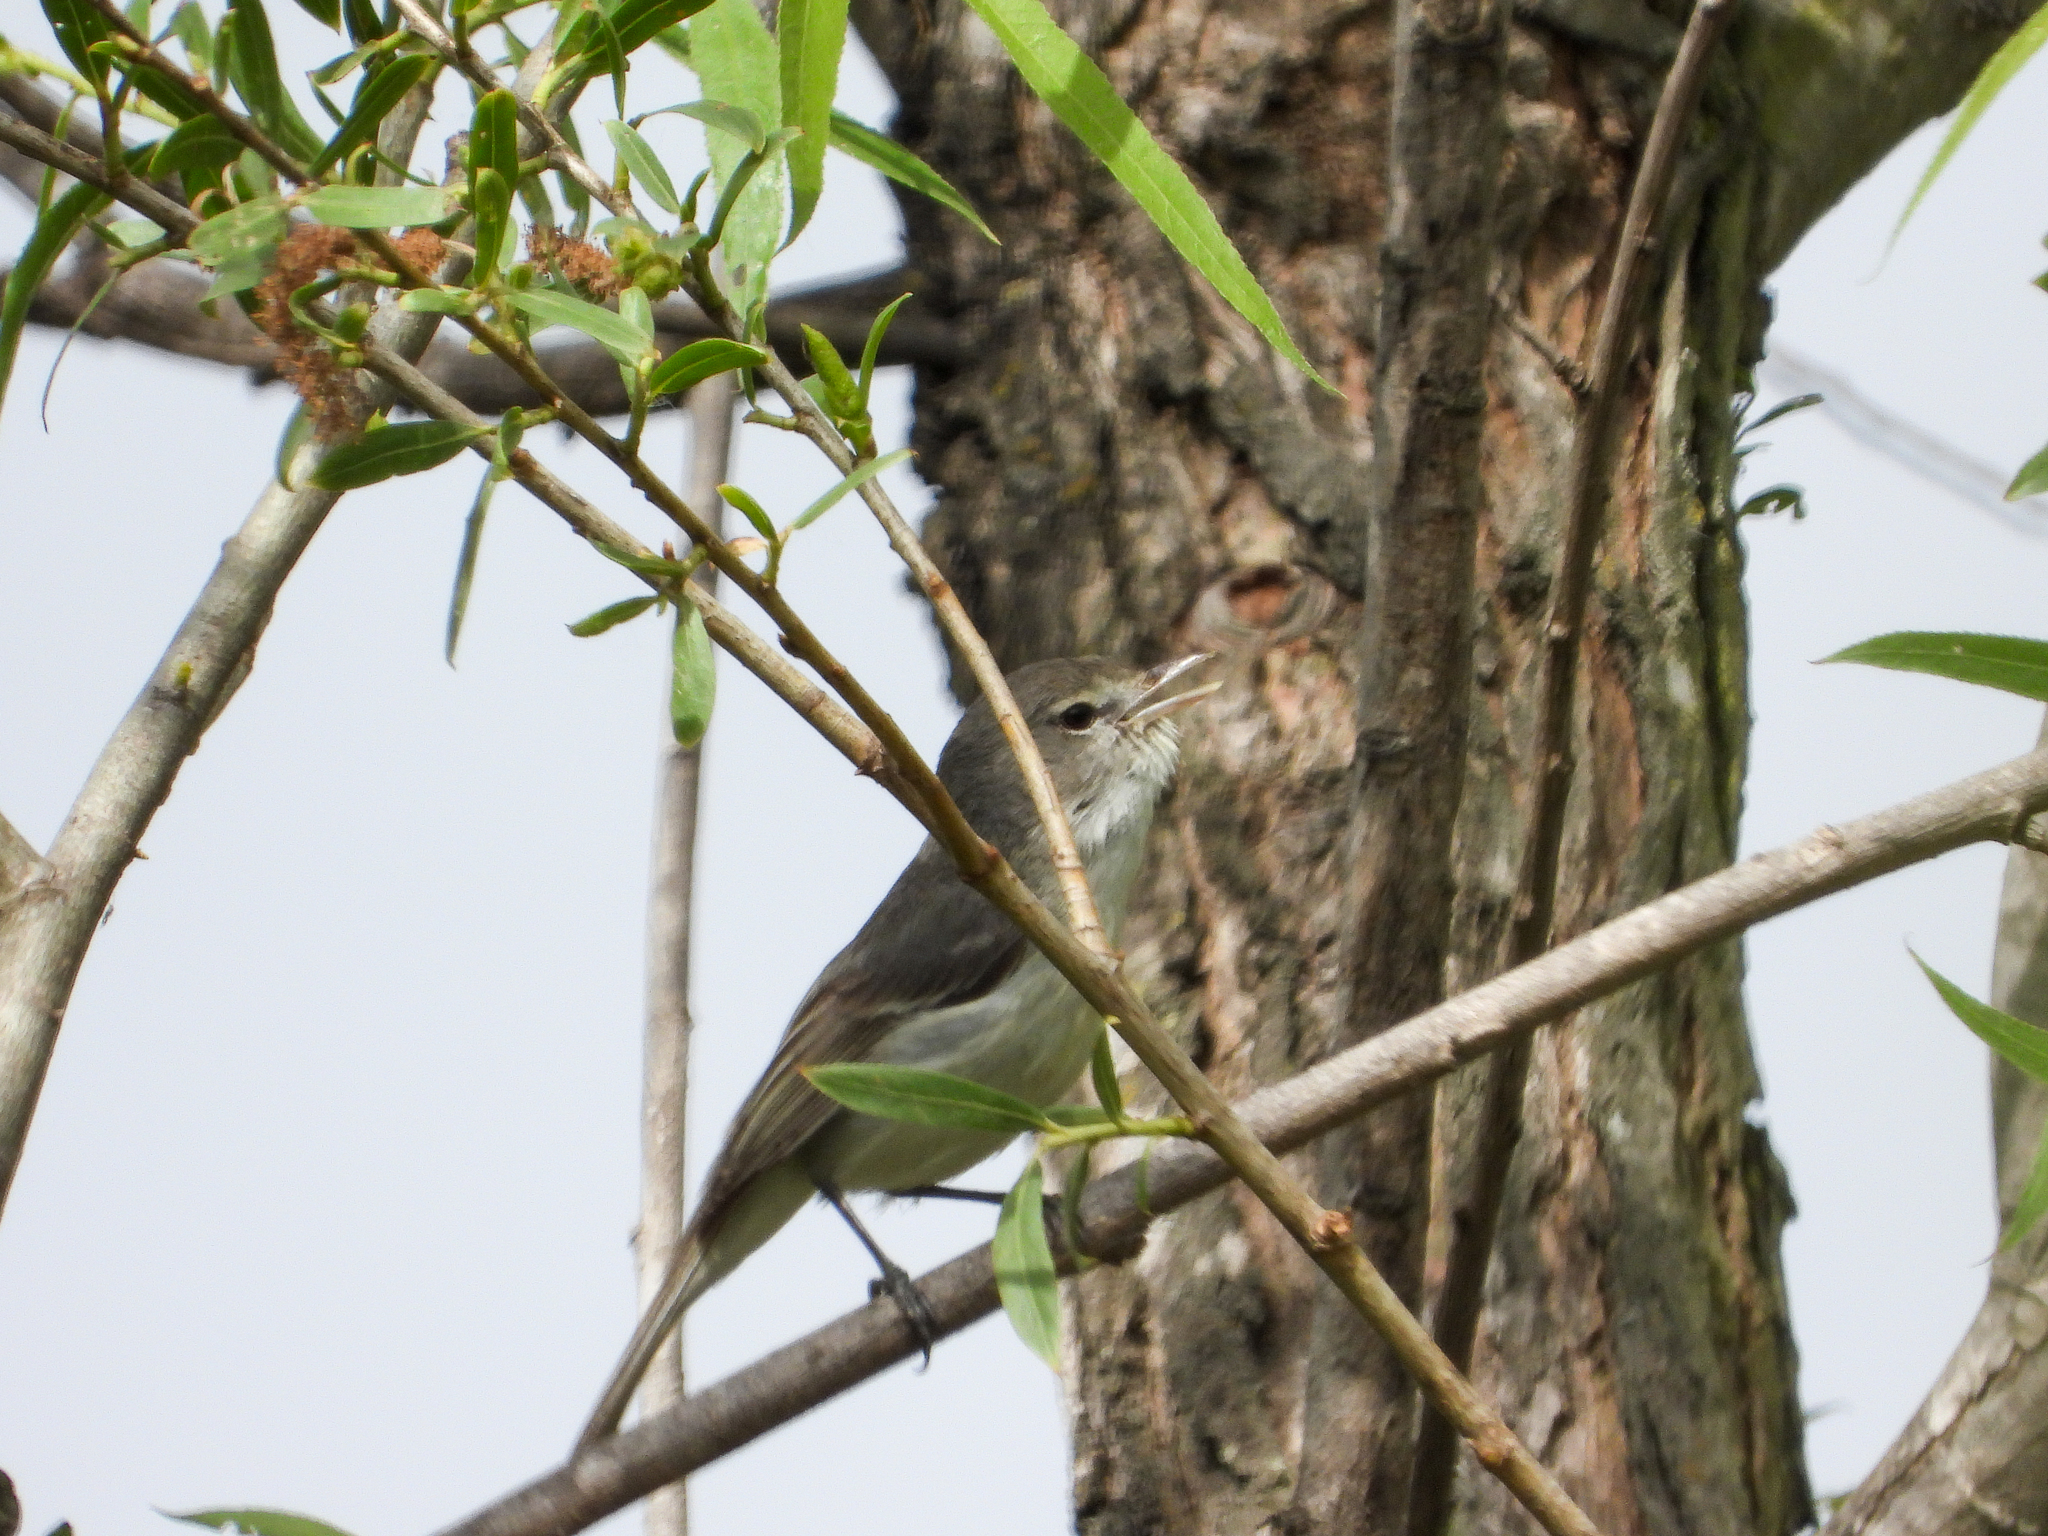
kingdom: Animalia
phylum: Chordata
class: Aves
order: Passeriformes
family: Vireonidae
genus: Vireo
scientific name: Vireo bellii
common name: Bell's vireo
